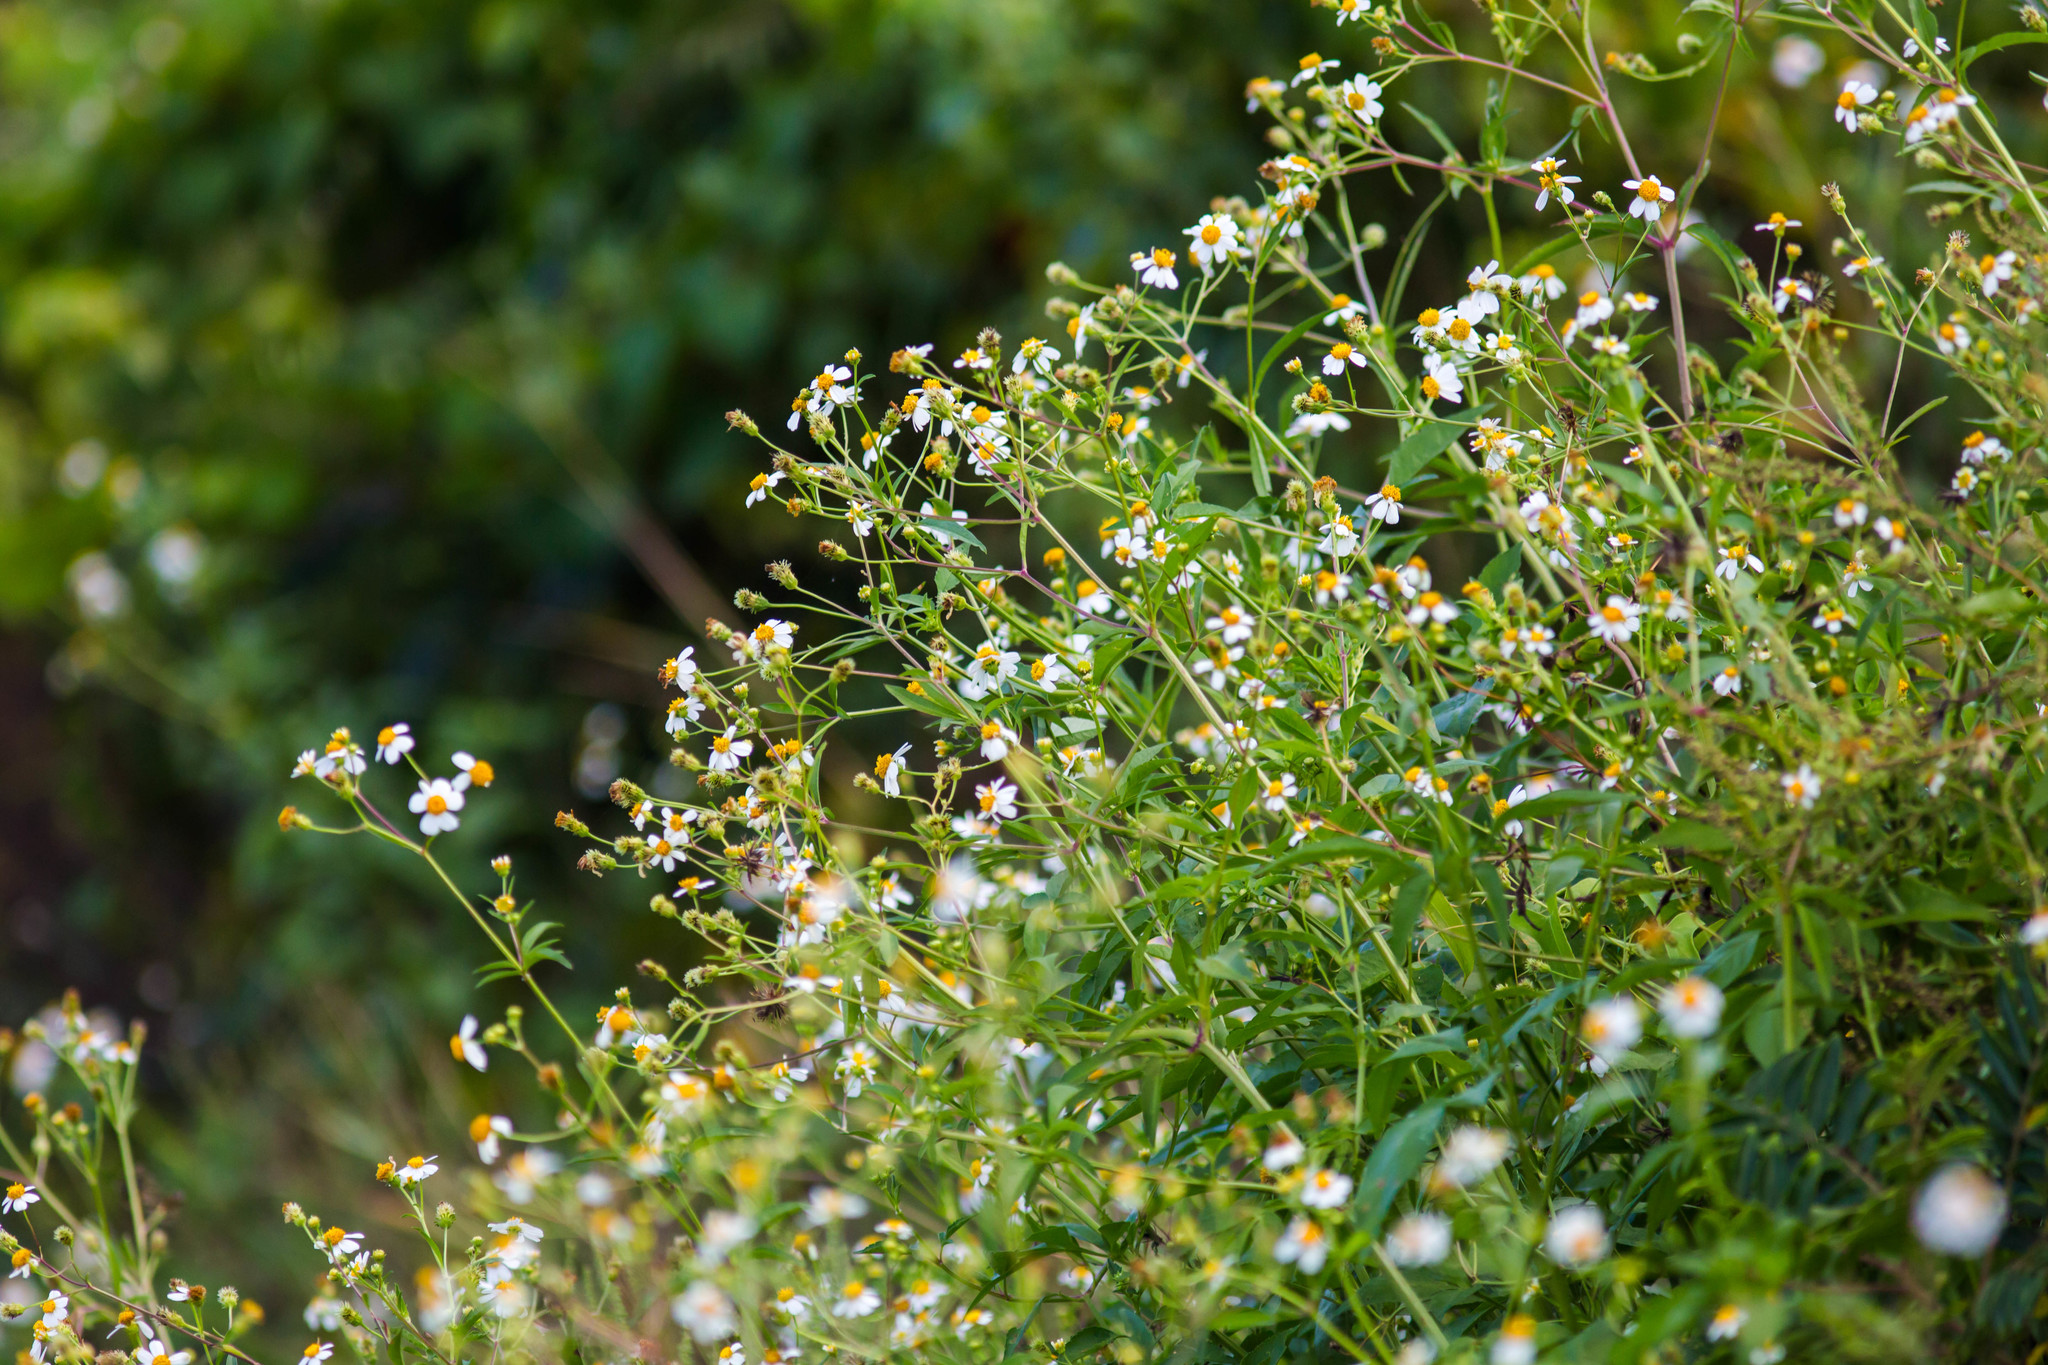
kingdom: Plantae
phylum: Tracheophyta
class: Magnoliopsida
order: Asterales
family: Asteraceae
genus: Bidens
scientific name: Bidens alba
